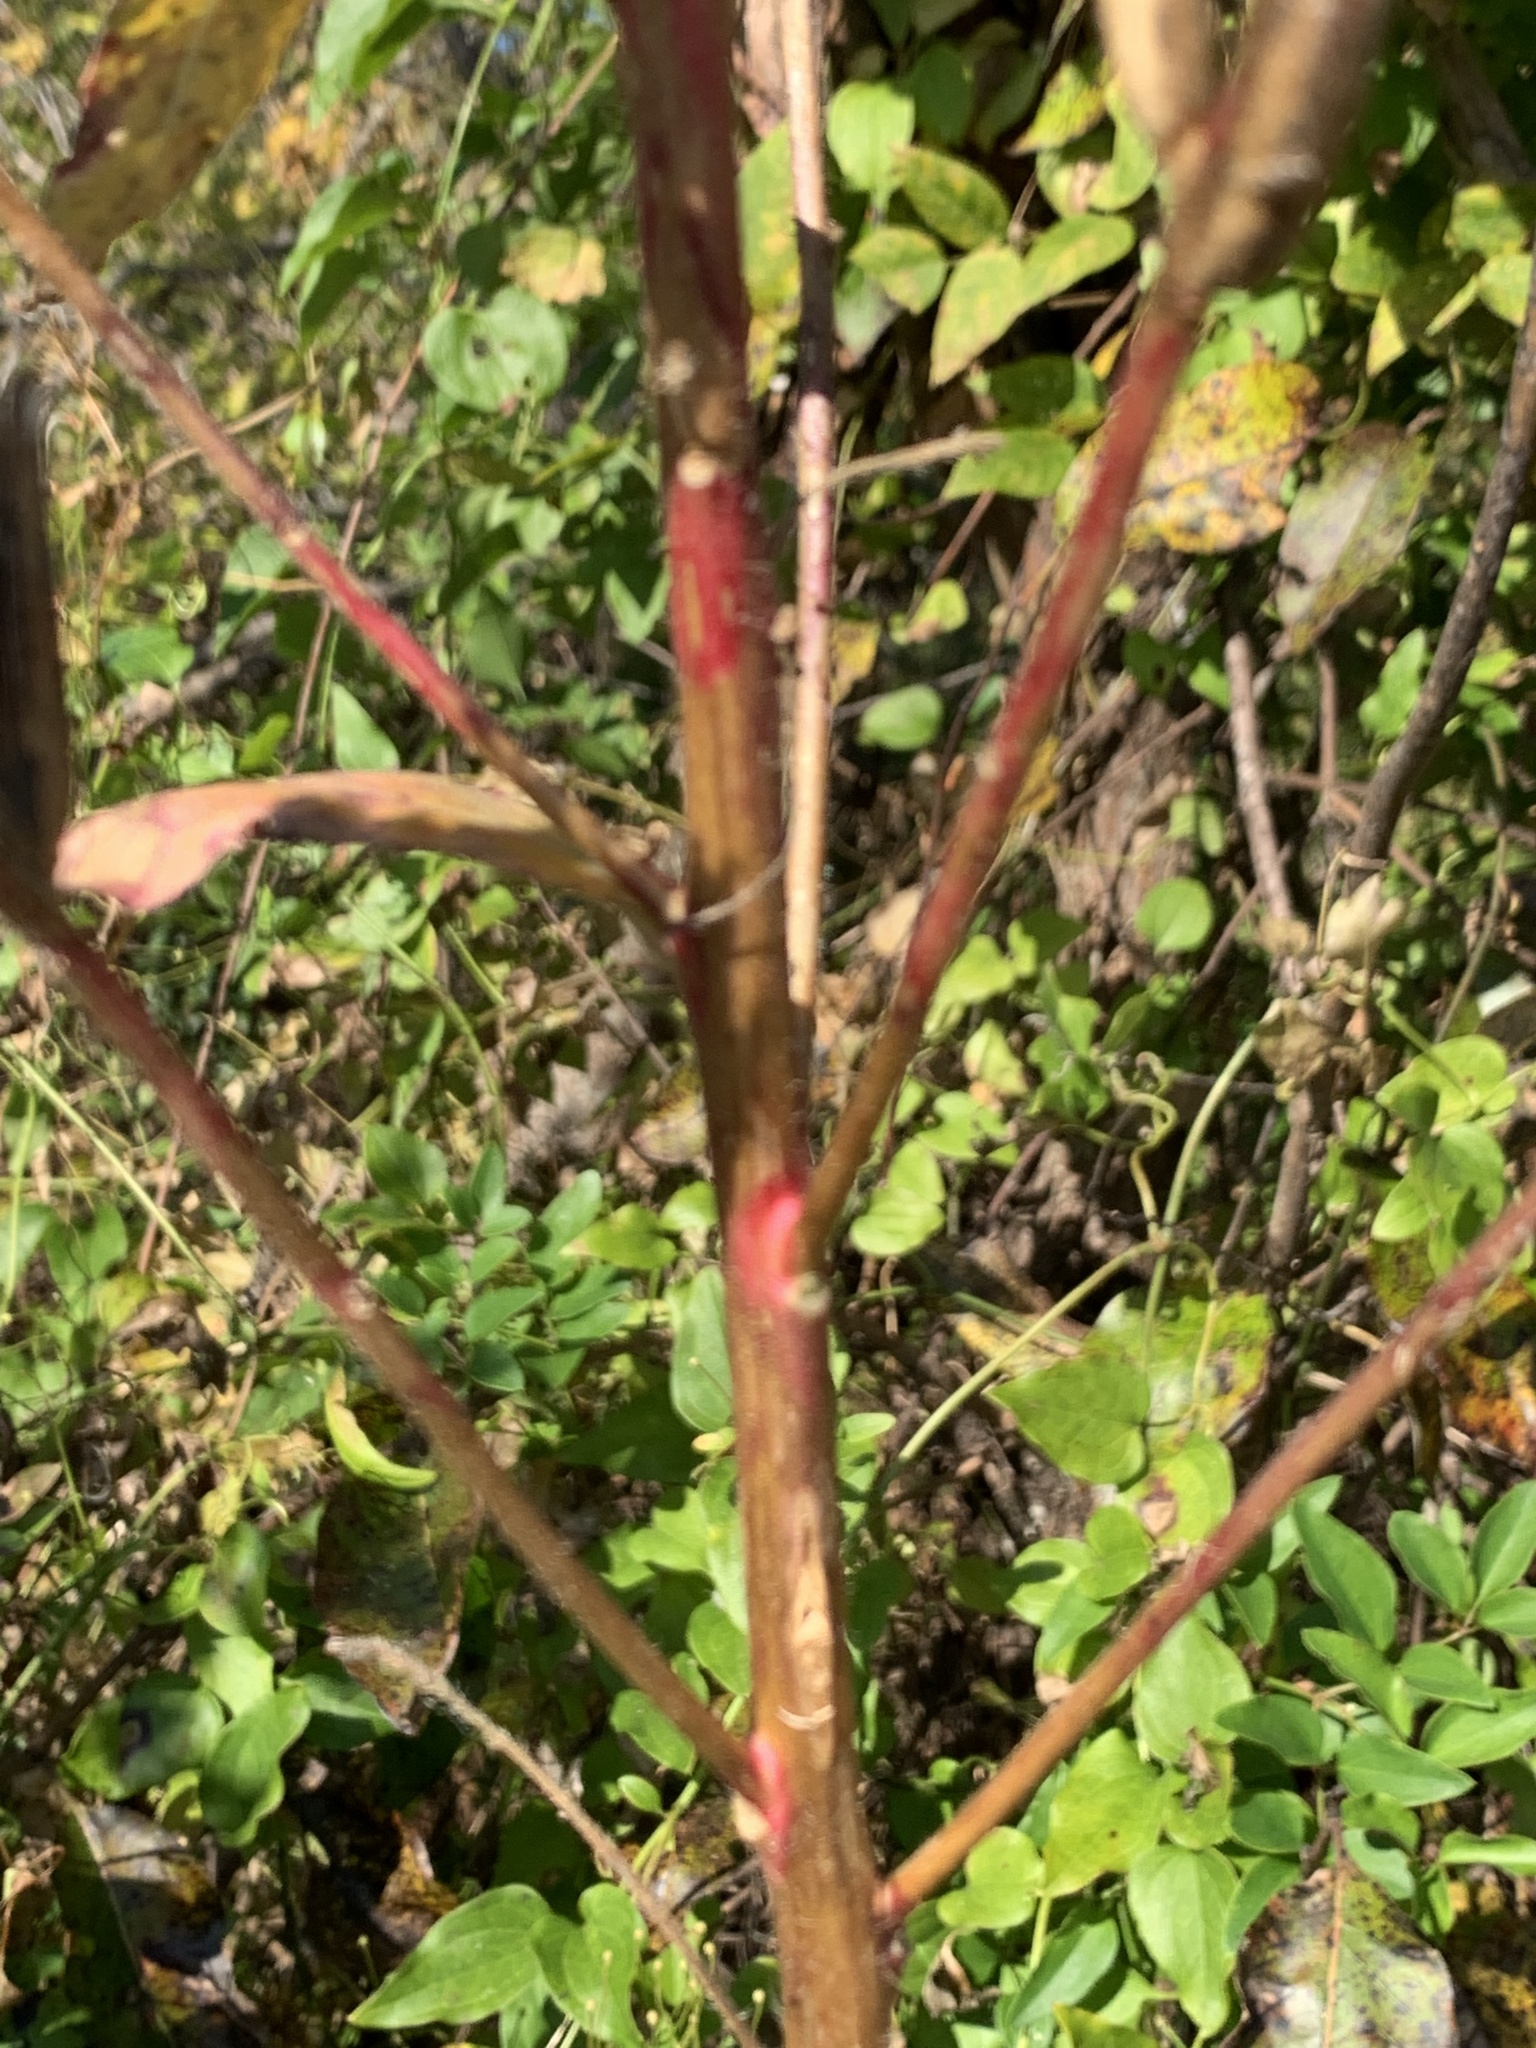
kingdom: Plantae
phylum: Tracheophyta
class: Magnoliopsida
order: Myrtales
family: Onagraceae
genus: Oenothera
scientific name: Oenothera biennis
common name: Common evening-primrose
